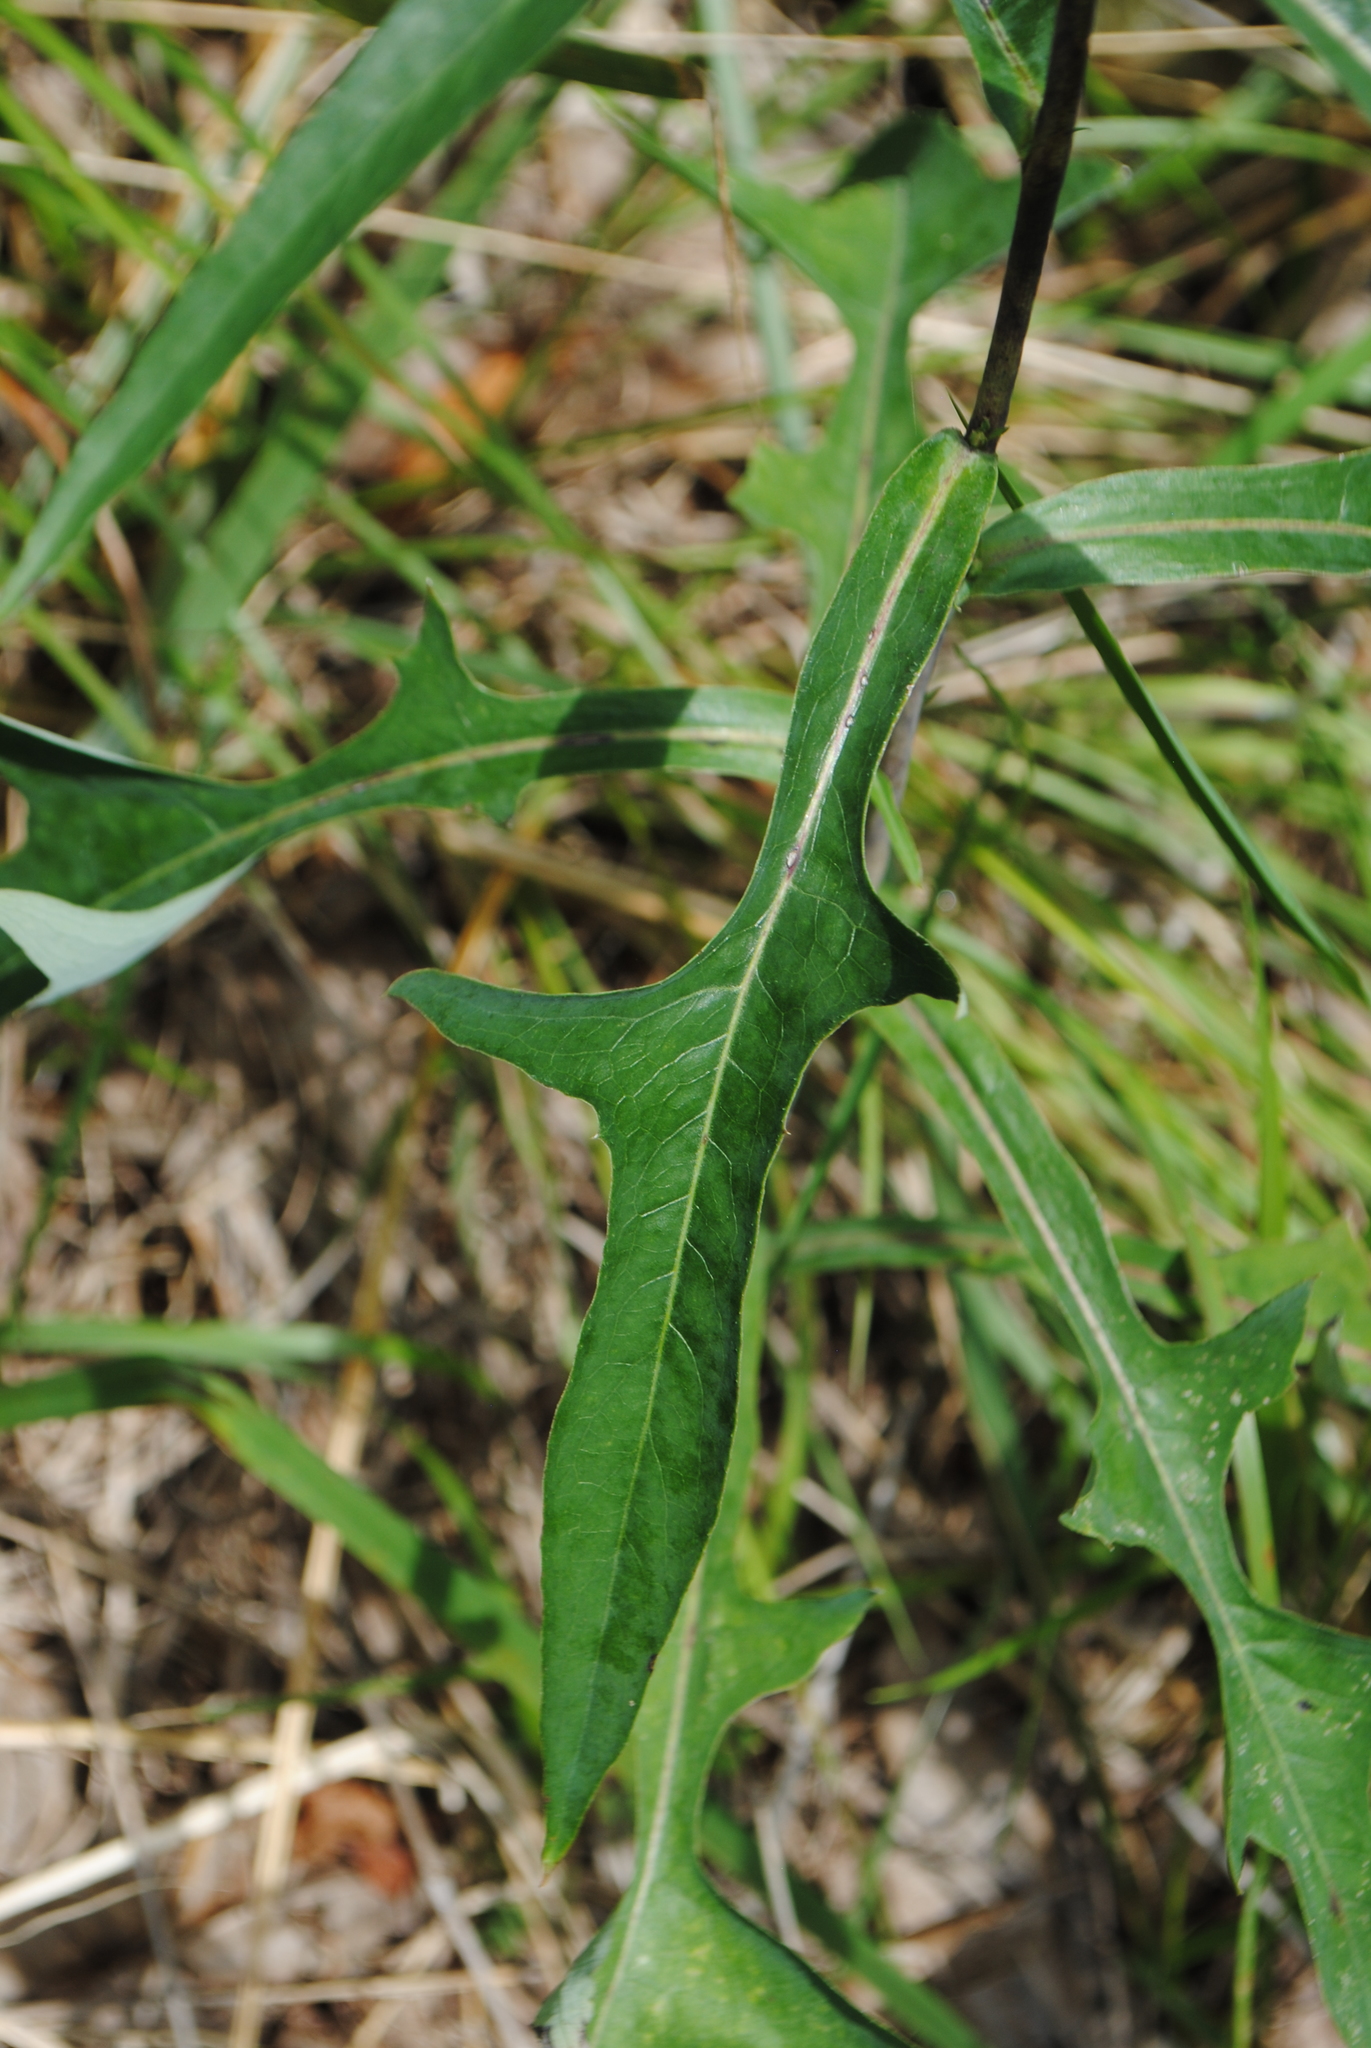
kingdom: Plantae
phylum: Tracheophyta
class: Magnoliopsida
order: Asterales
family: Asteraceae
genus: Lactuca
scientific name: Lactuca canadensis
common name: Canada lettuce
